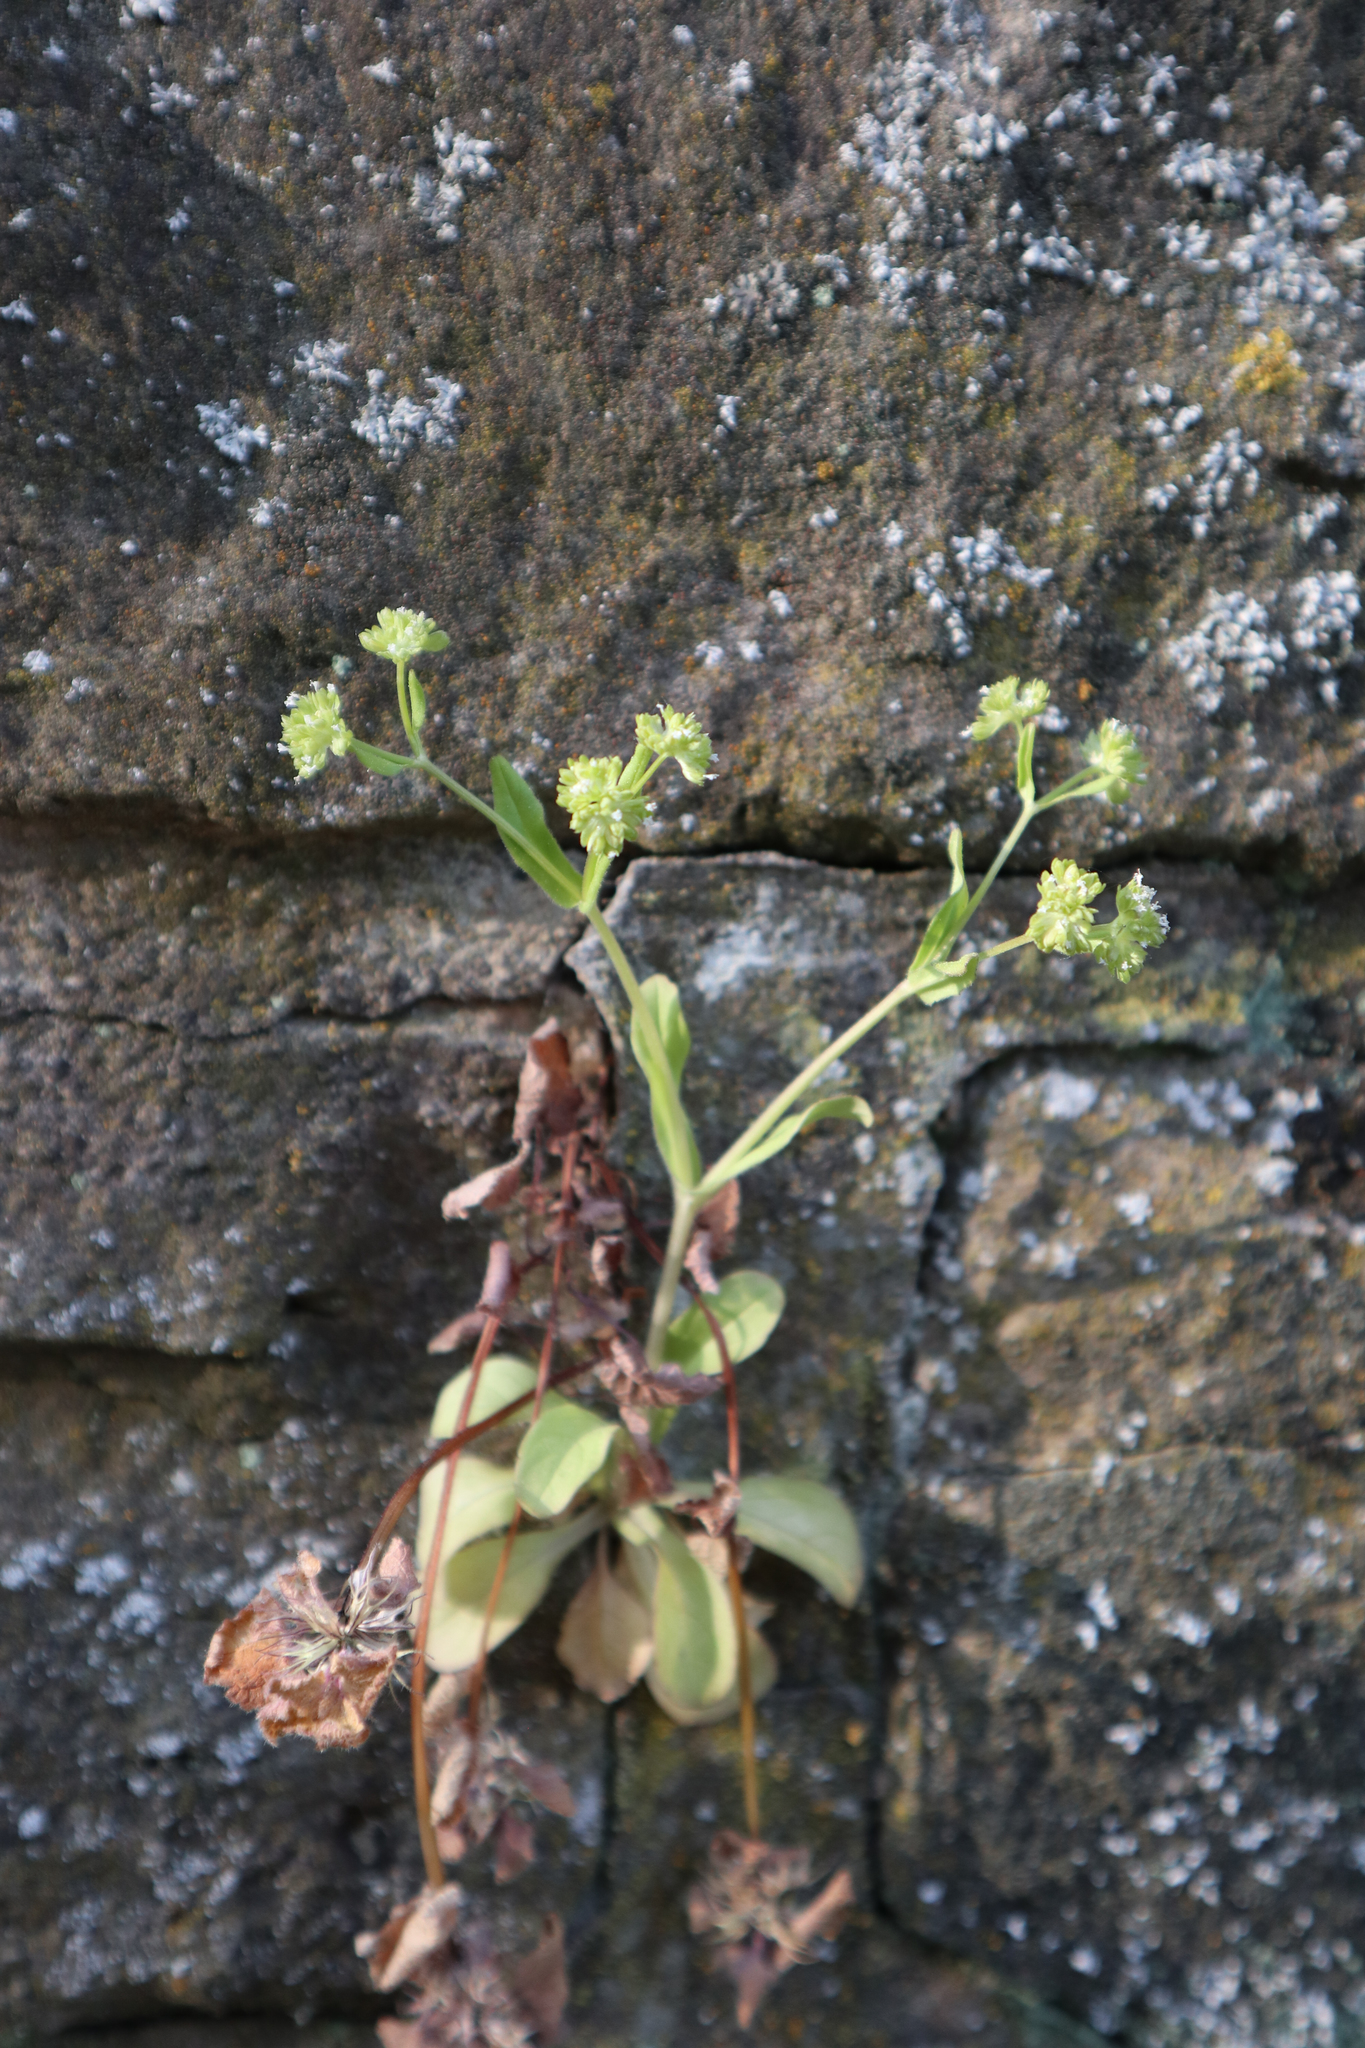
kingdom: Plantae
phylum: Tracheophyta
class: Magnoliopsida
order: Dipsacales
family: Caprifoliaceae
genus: Valerianella
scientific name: Valerianella locusta
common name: Common cornsalad
